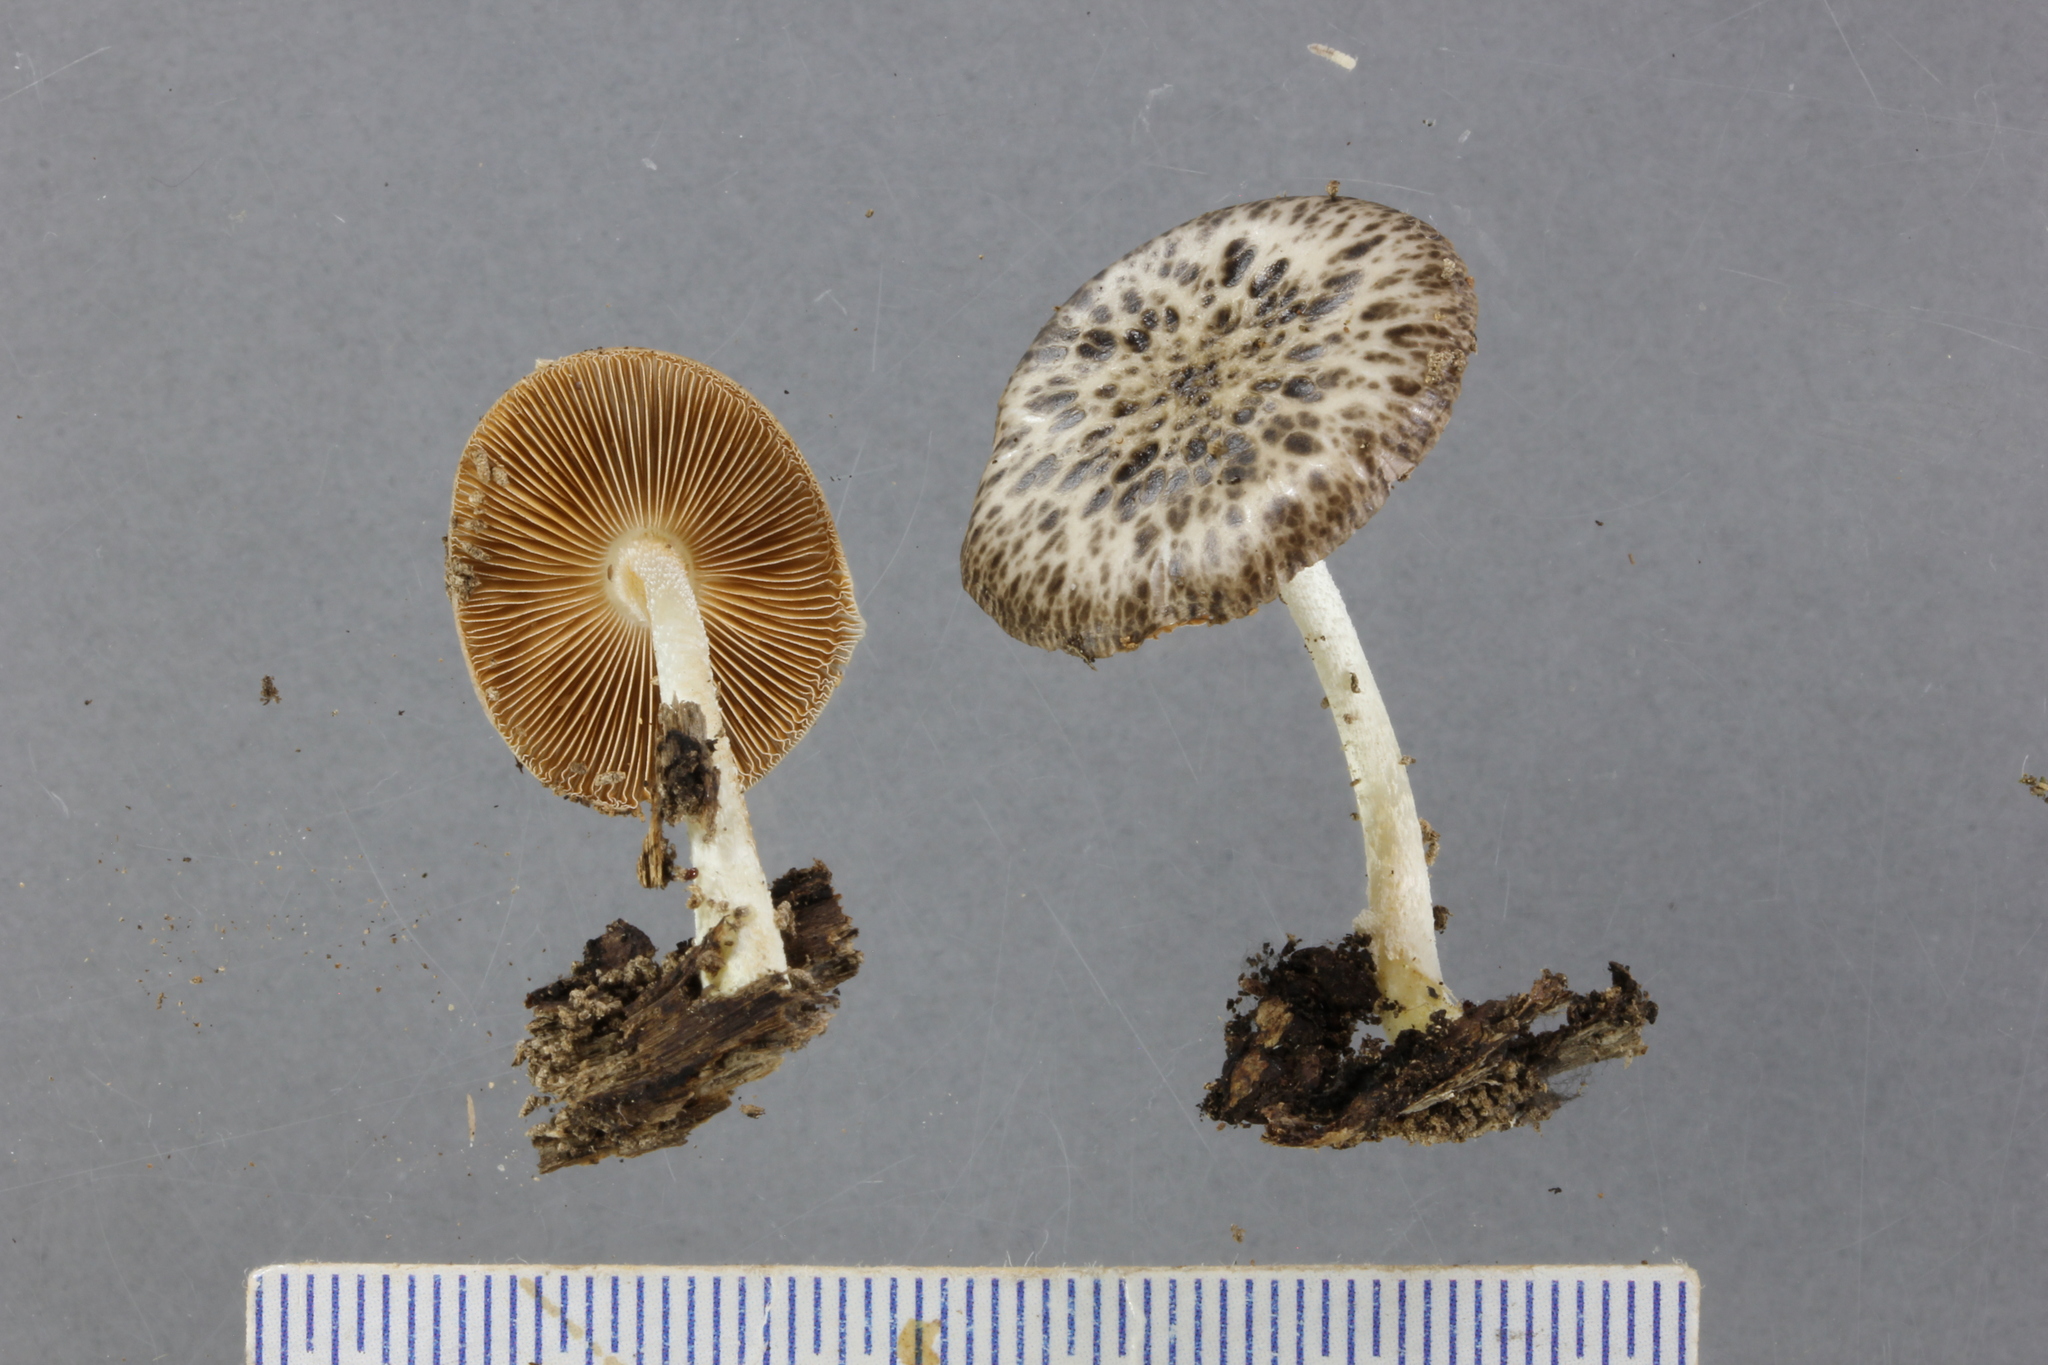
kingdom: Fungi
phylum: Basidiomycota
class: Agaricomycetes
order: Agaricales
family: Bolbitiaceae
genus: Bolbitius
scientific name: Bolbitius muscicola
